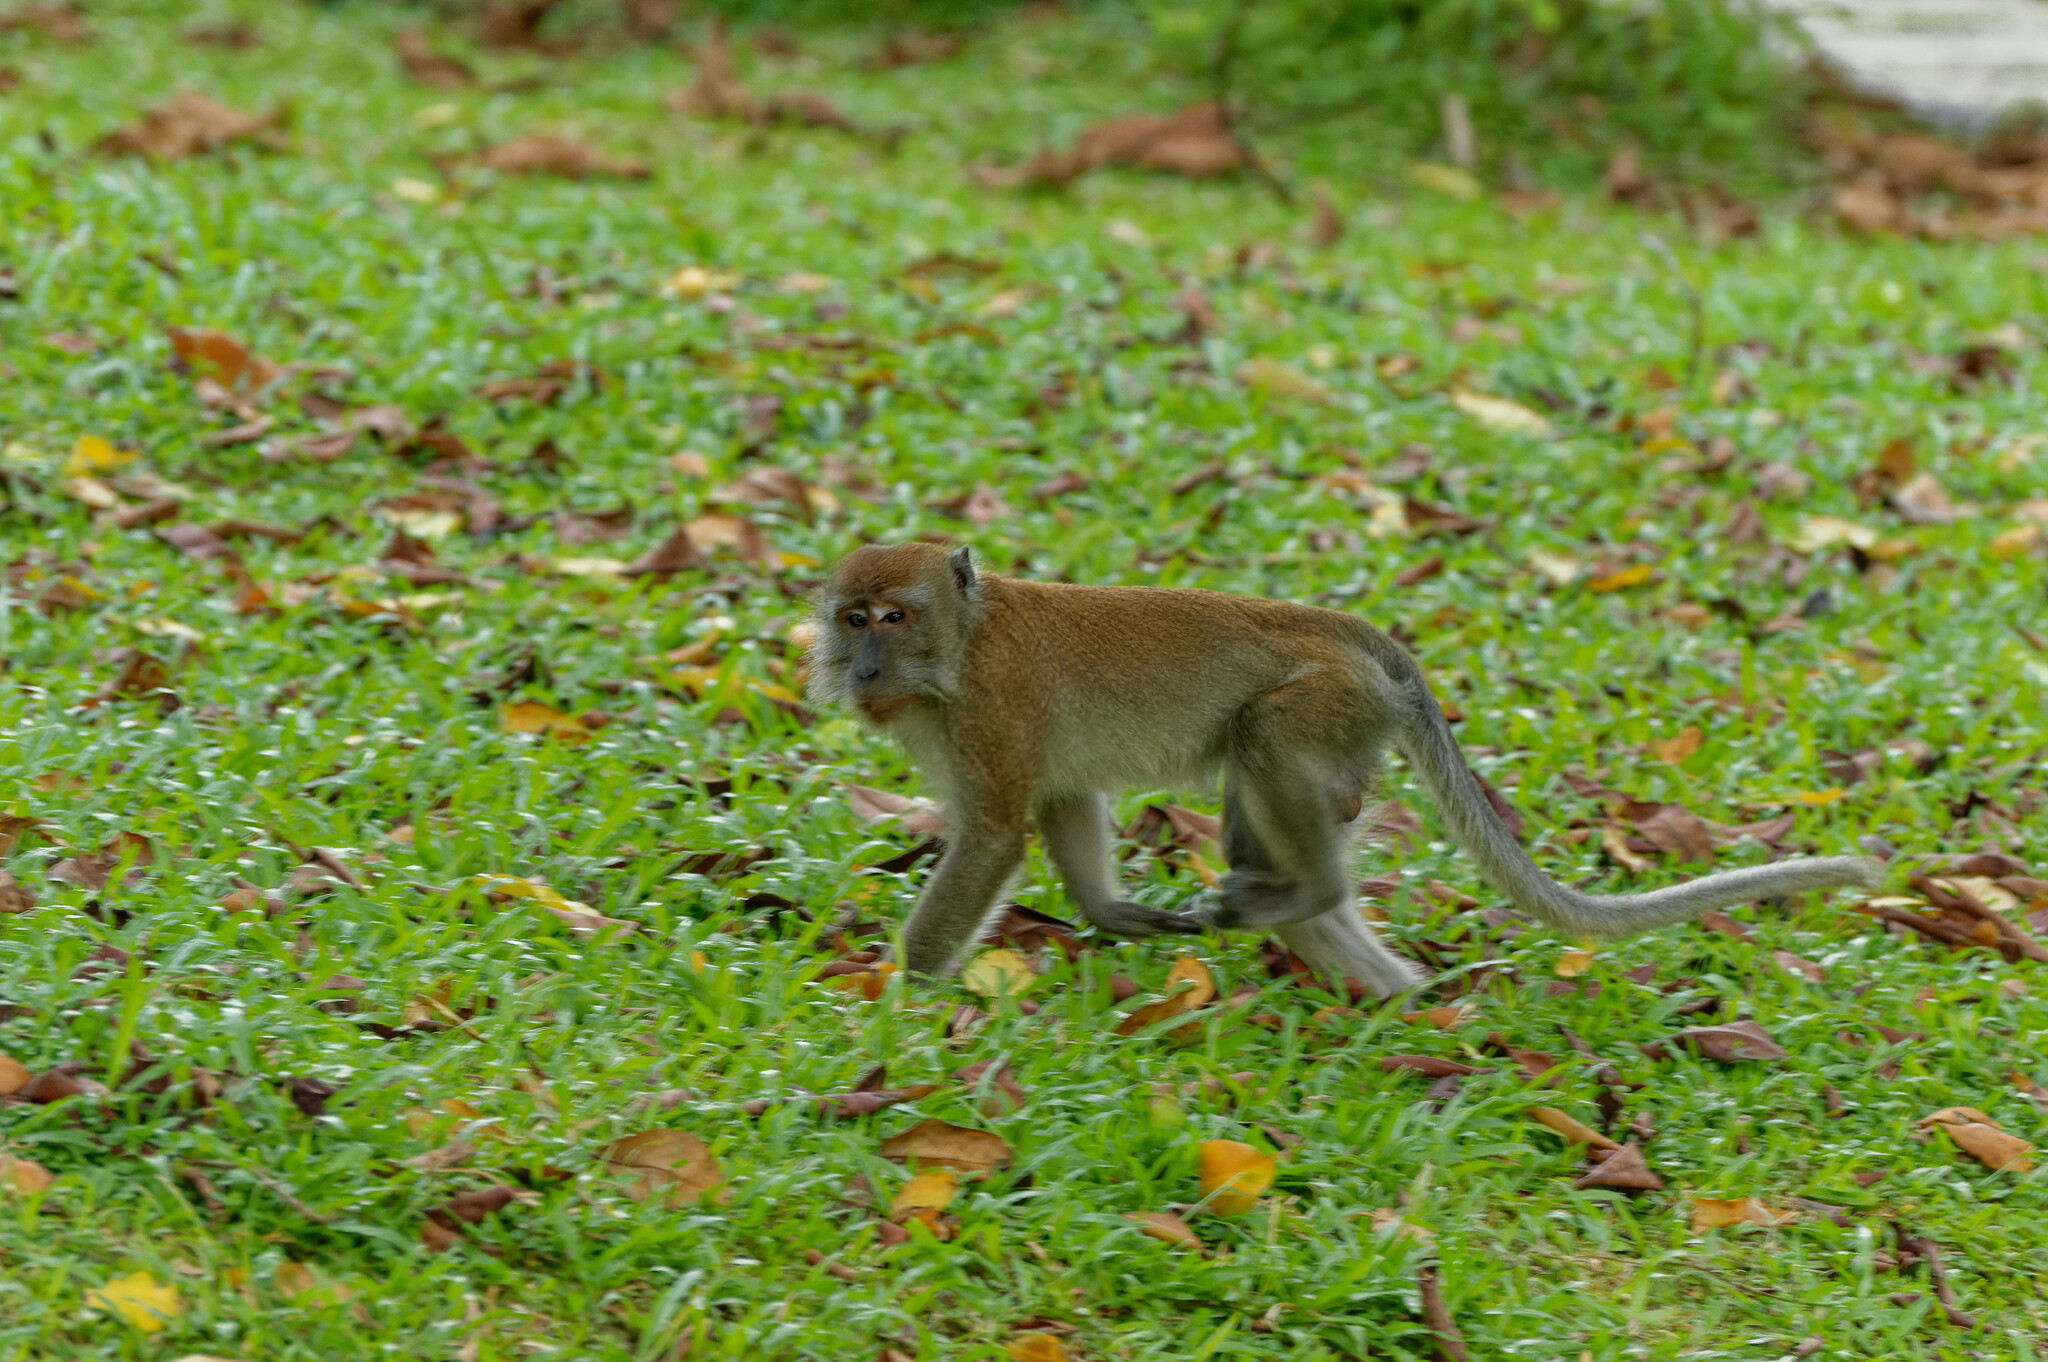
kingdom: Animalia
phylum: Chordata
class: Mammalia
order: Primates
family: Cercopithecidae
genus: Macaca
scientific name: Macaca fascicularis
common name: Crab-eating macaque
